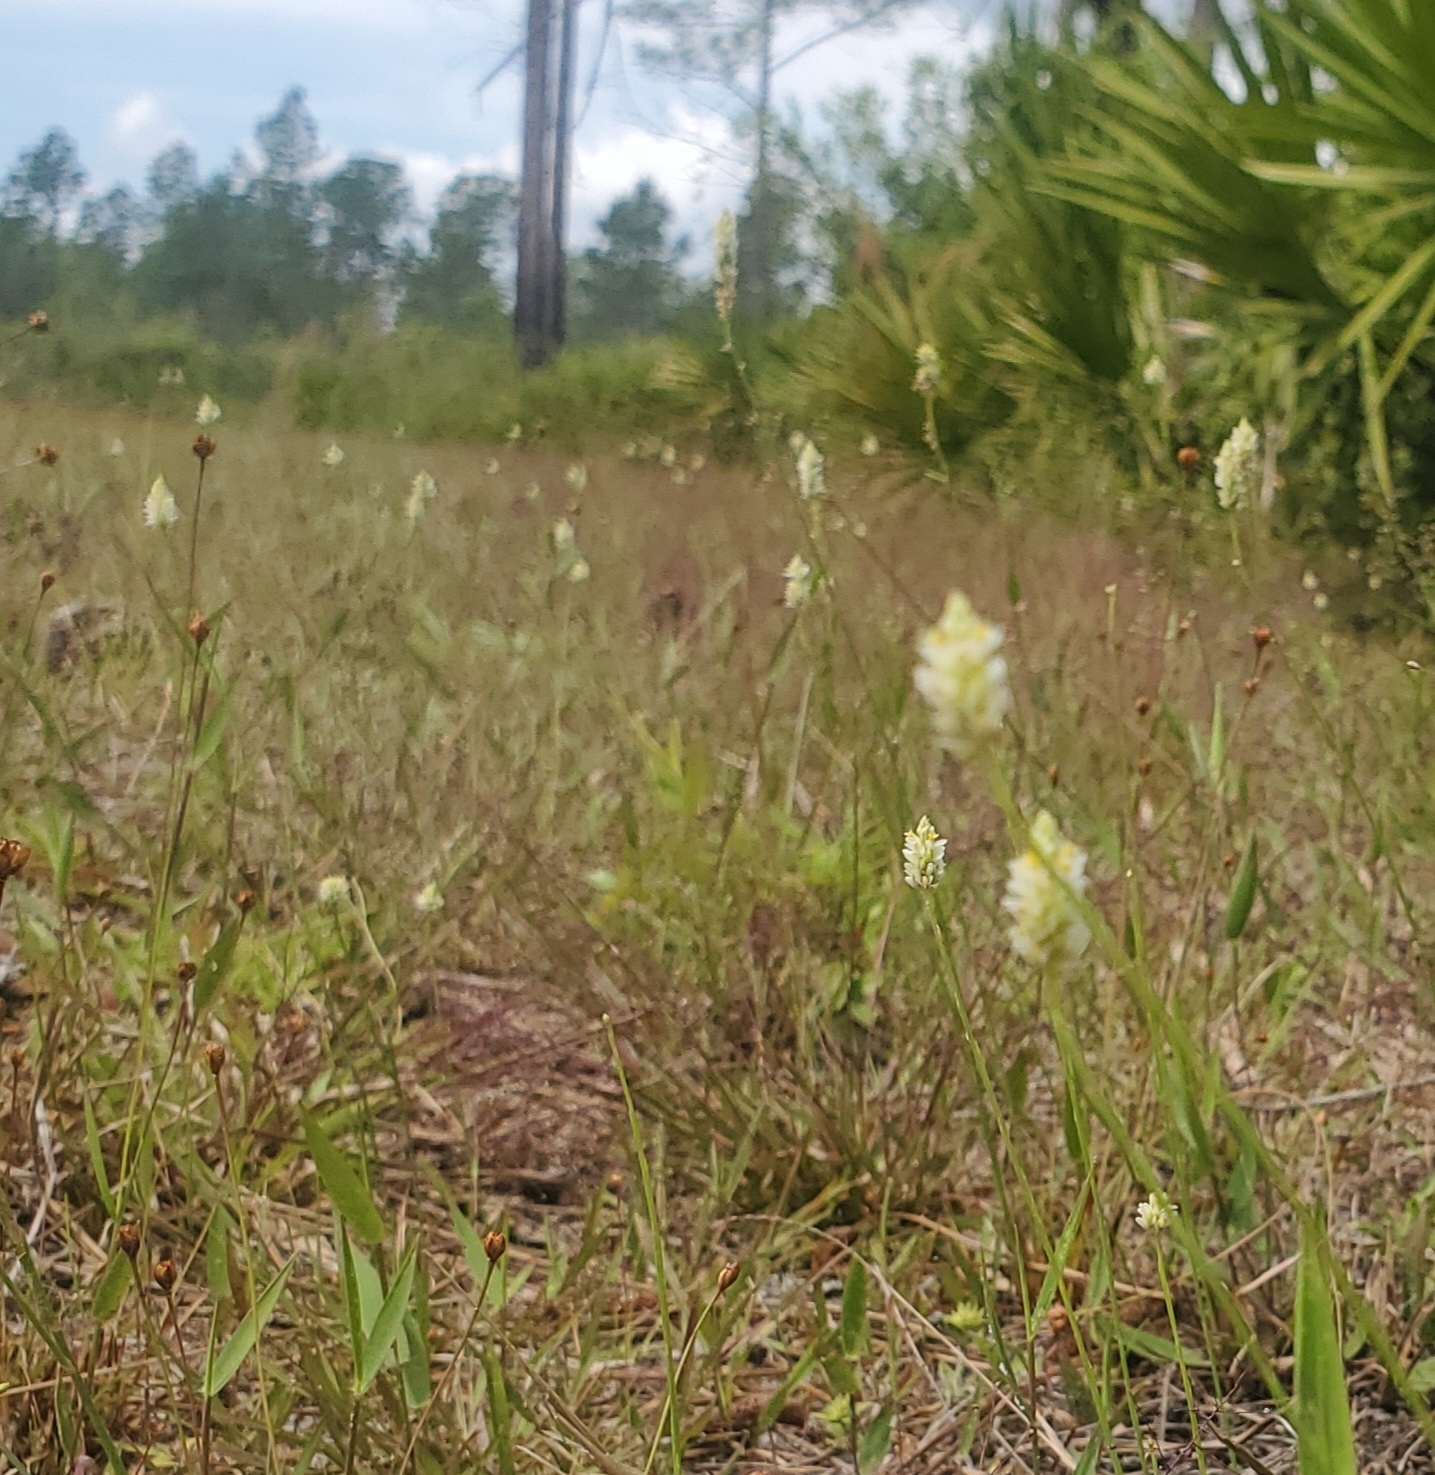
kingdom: Plantae
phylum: Tracheophyta
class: Magnoliopsida
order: Fabales
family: Polygalaceae
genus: Polygala
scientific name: Polygala setacea
